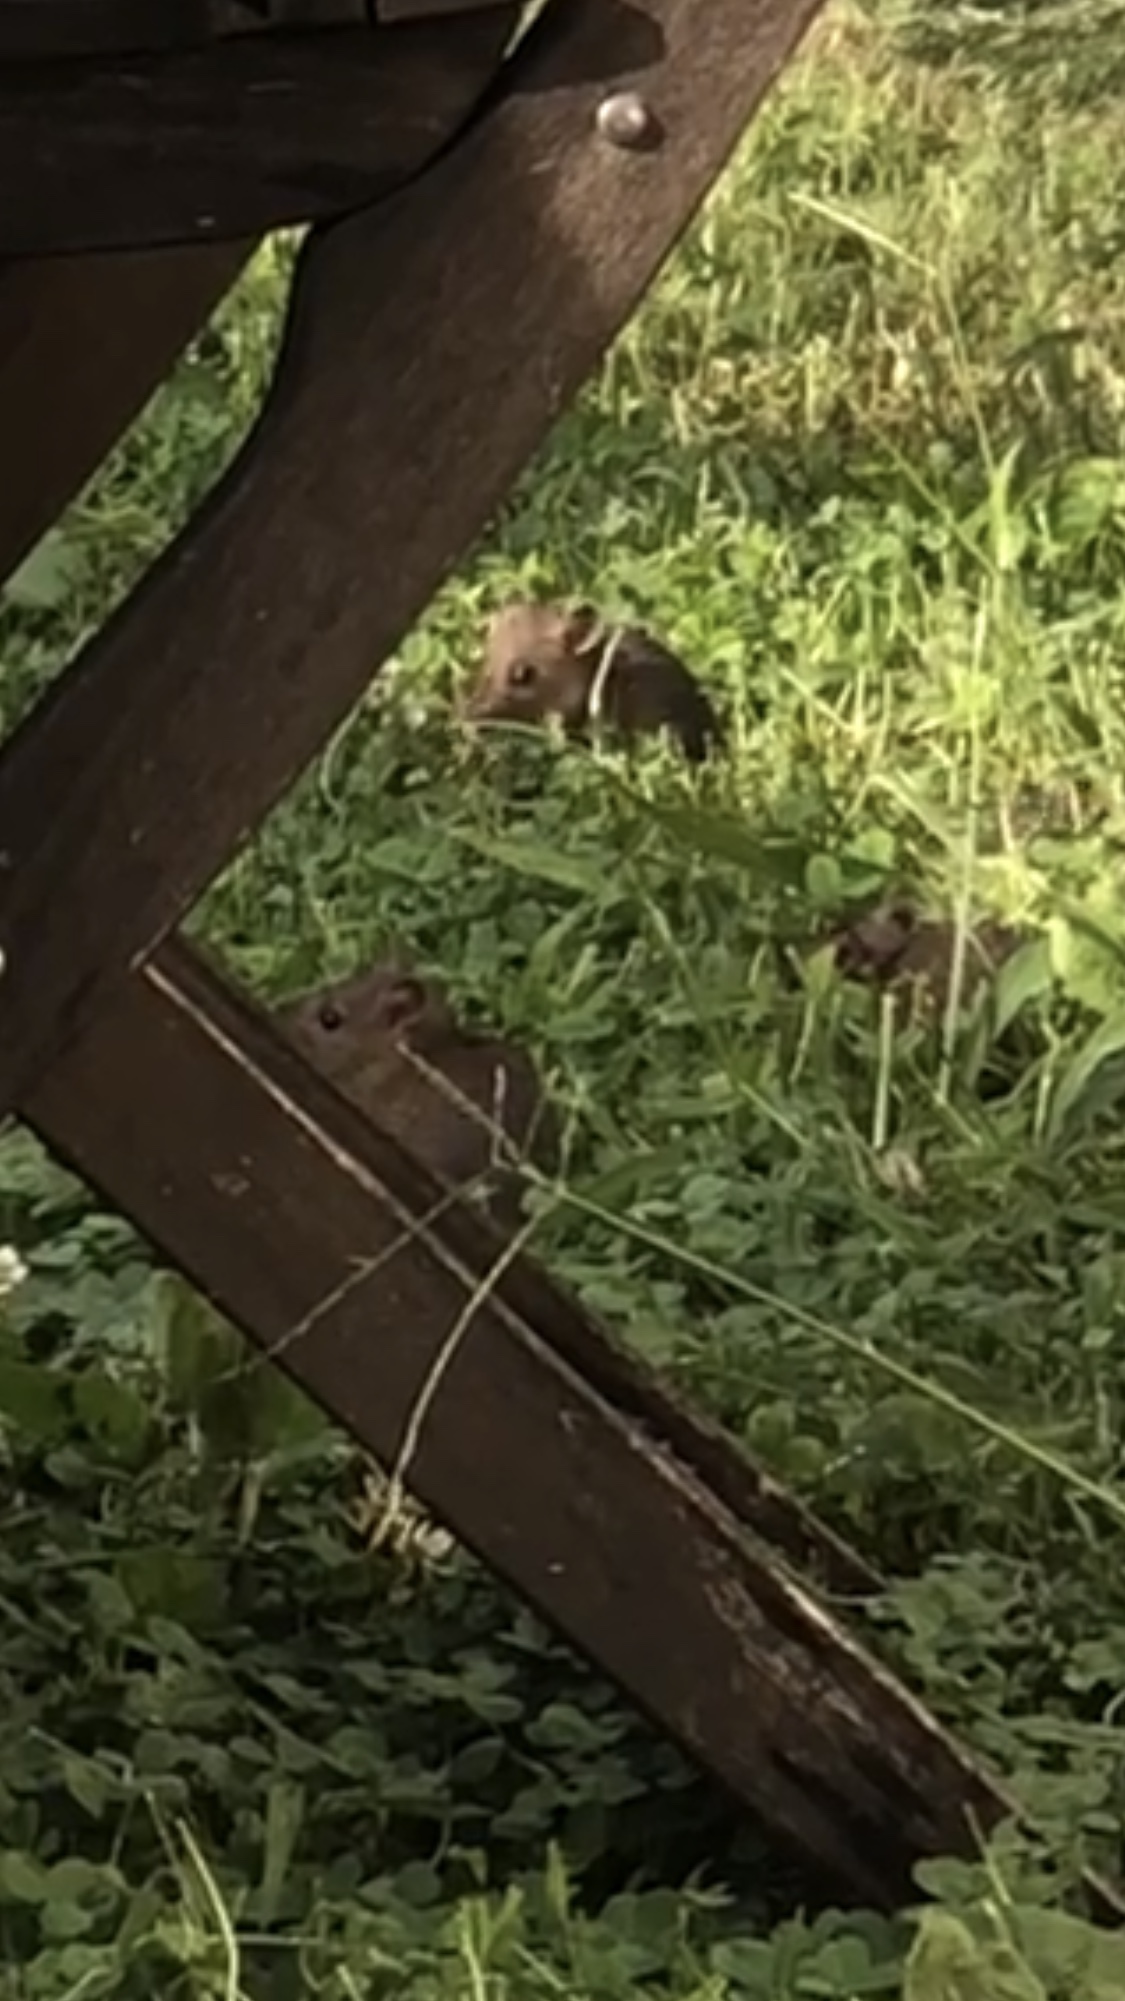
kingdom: Animalia
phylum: Chordata
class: Mammalia
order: Rodentia
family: Muridae
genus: Rattus
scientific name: Rattus norvegicus
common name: Brown rat
